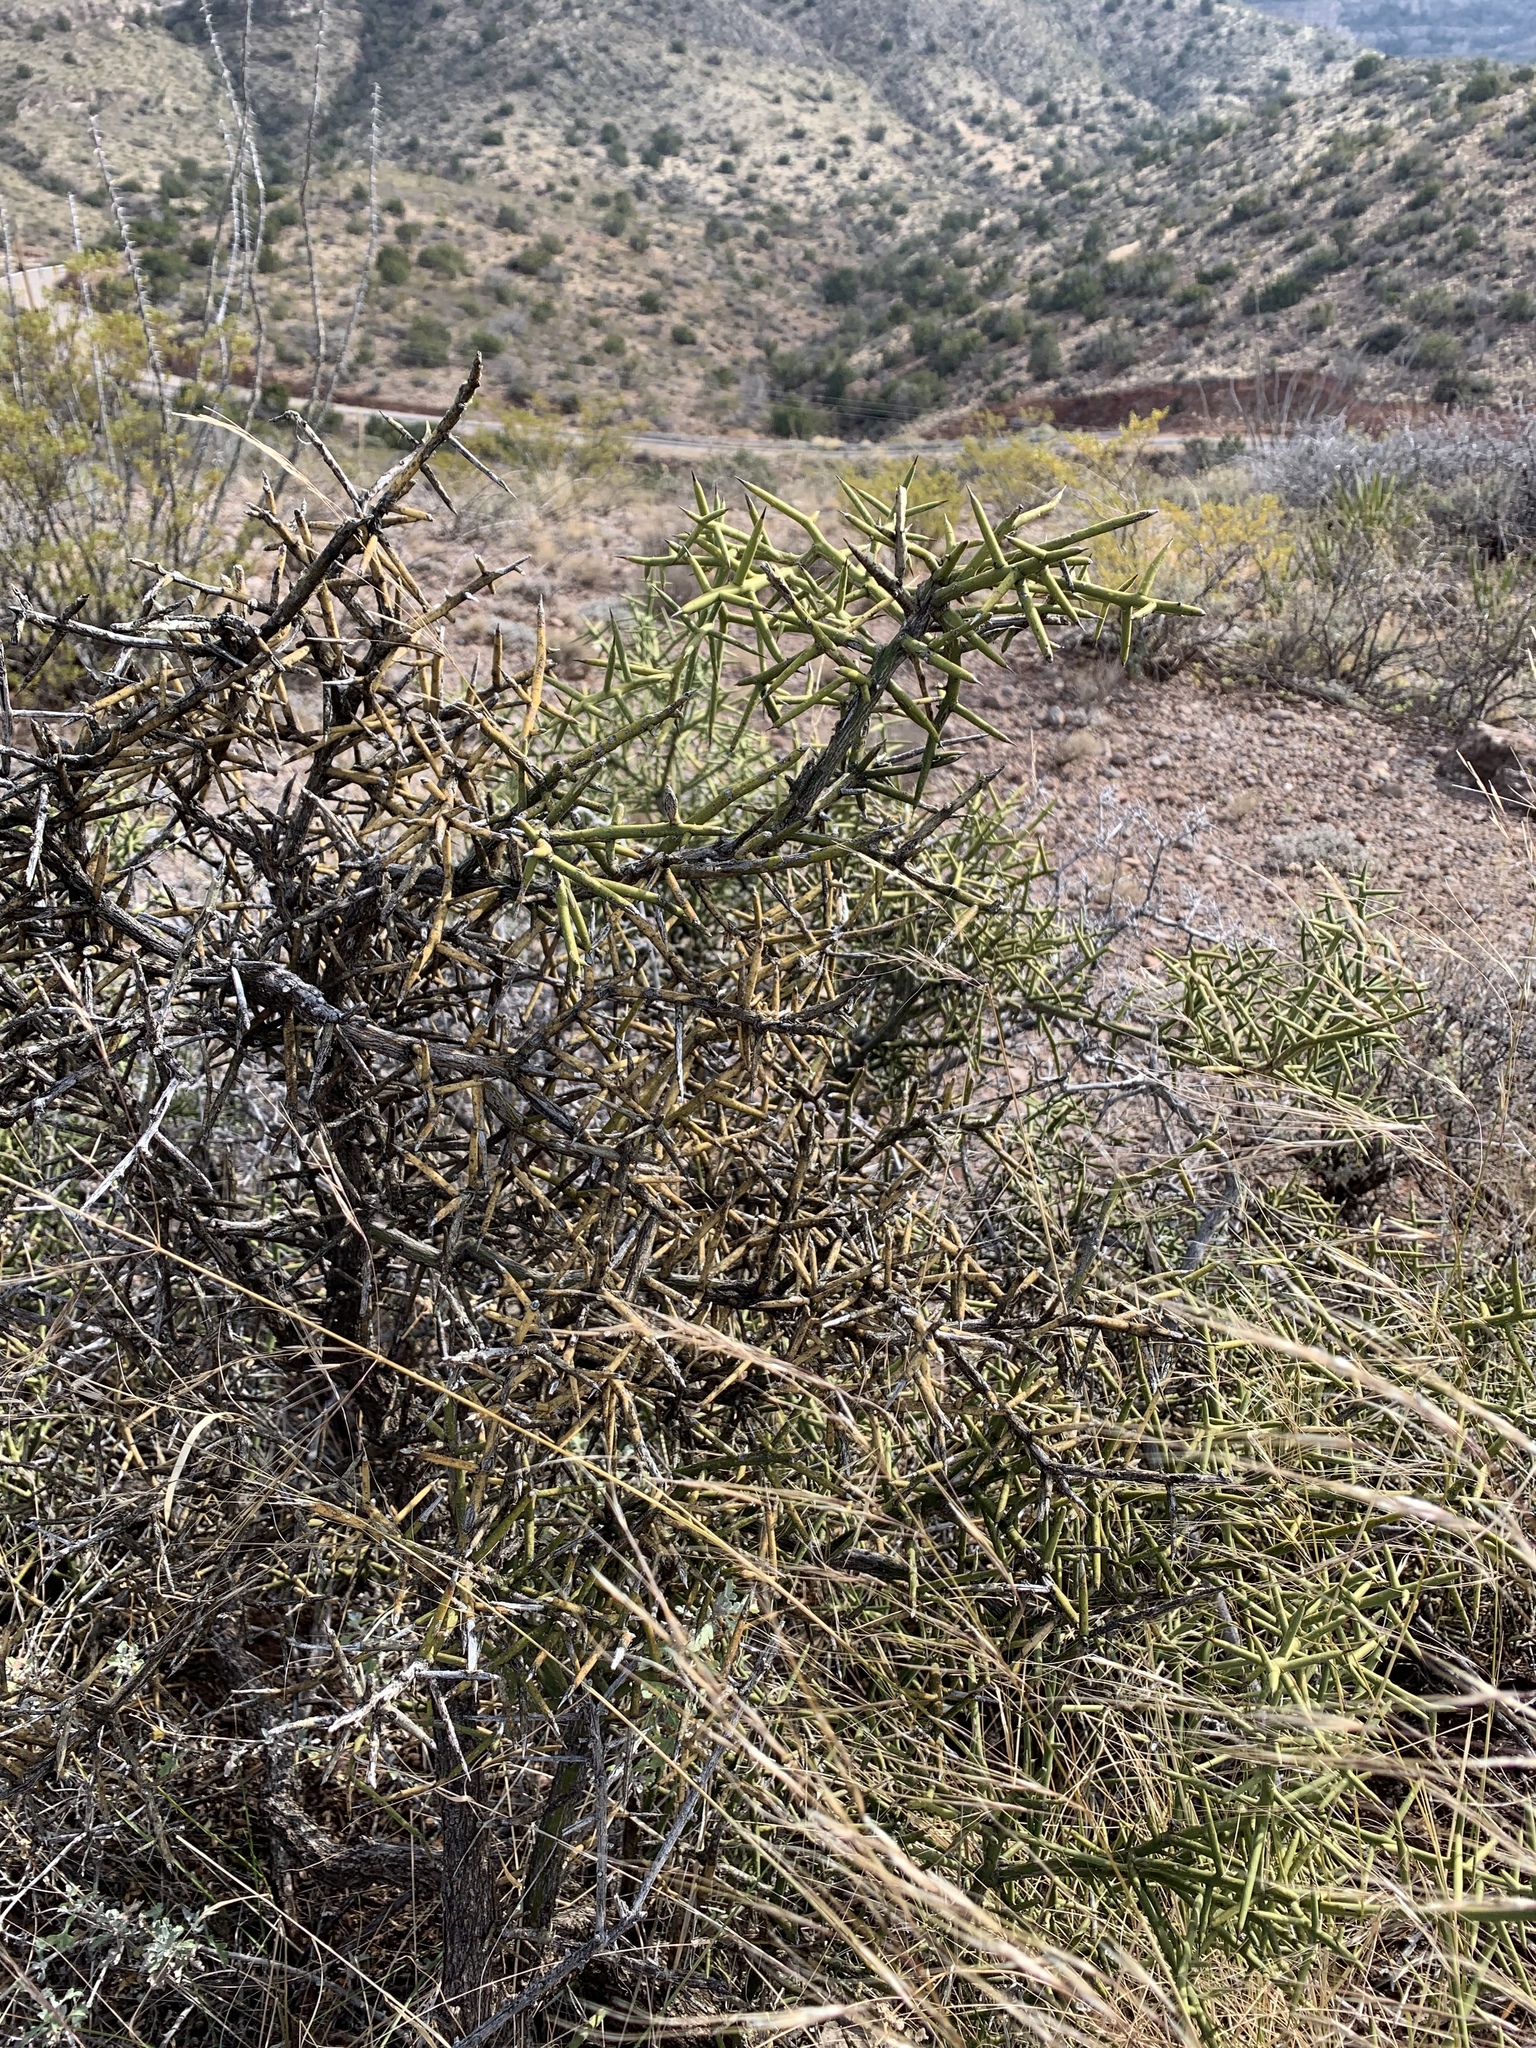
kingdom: Plantae
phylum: Tracheophyta
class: Magnoliopsida
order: Brassicales
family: Koeberliniaceae
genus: Koeberlinia
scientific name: Koeberlinia spinosa
